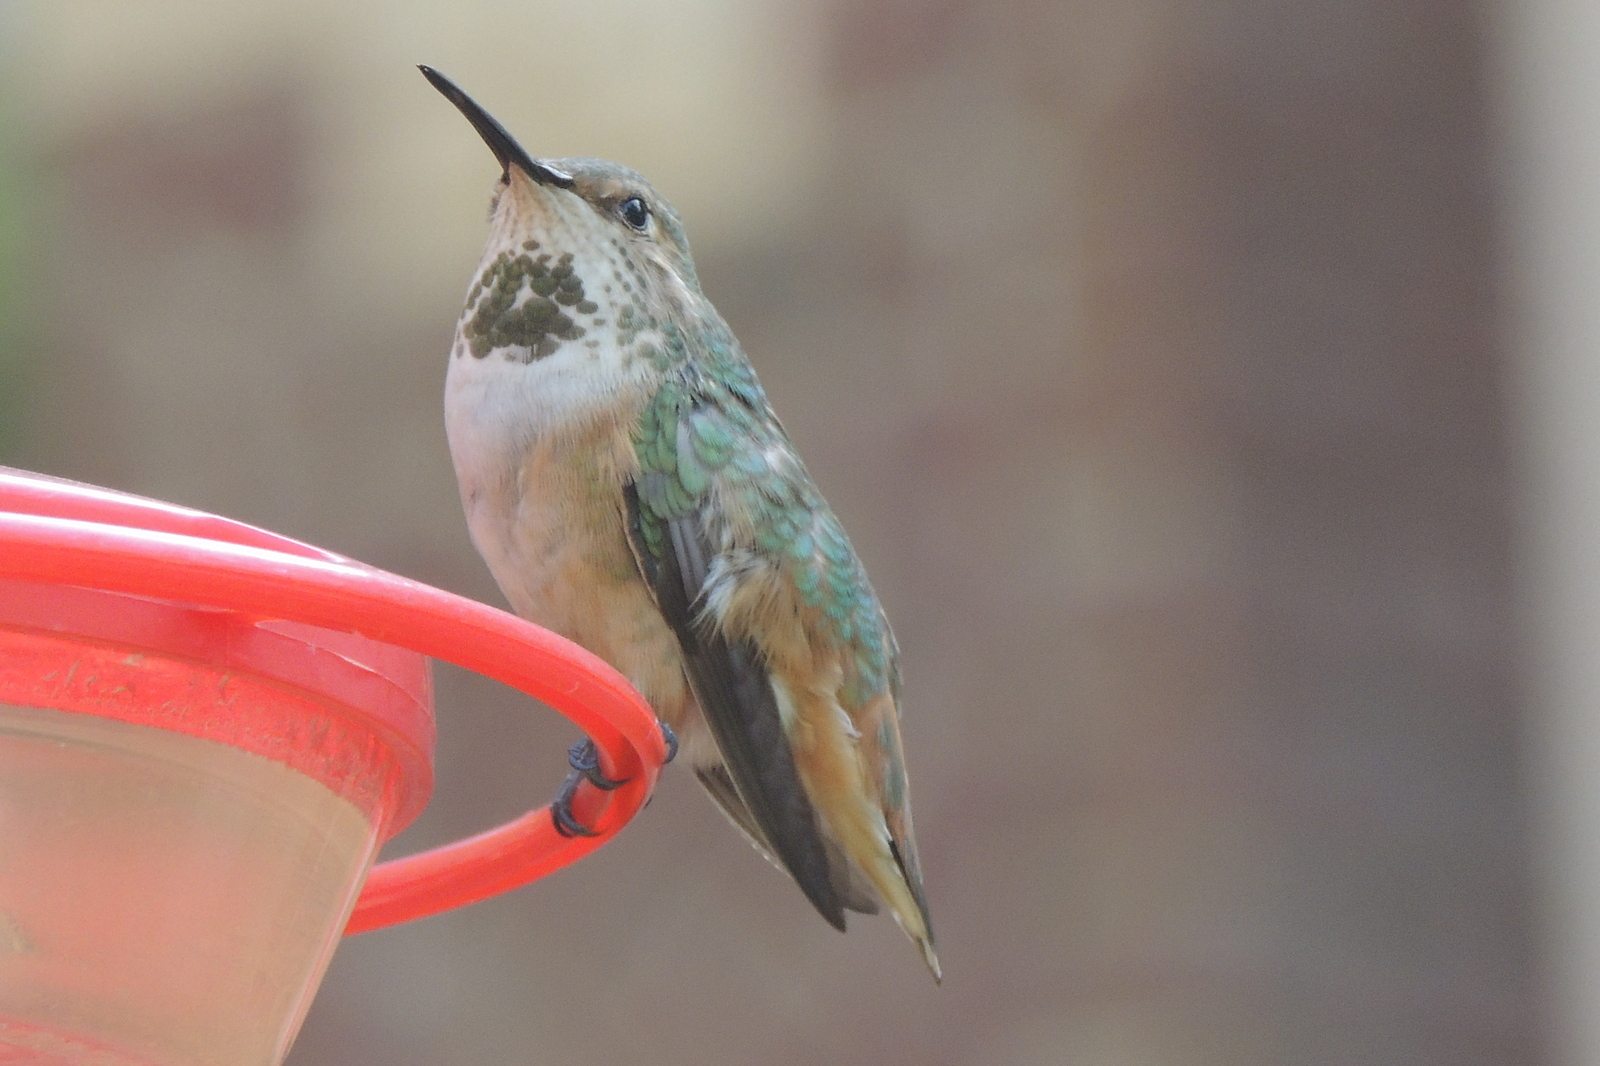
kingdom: Animalia
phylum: Chordata
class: Aves
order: Apodiformes
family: Trochilidae
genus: Selasphorus
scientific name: Selasphorus sasin
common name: Allen's hummingbird
